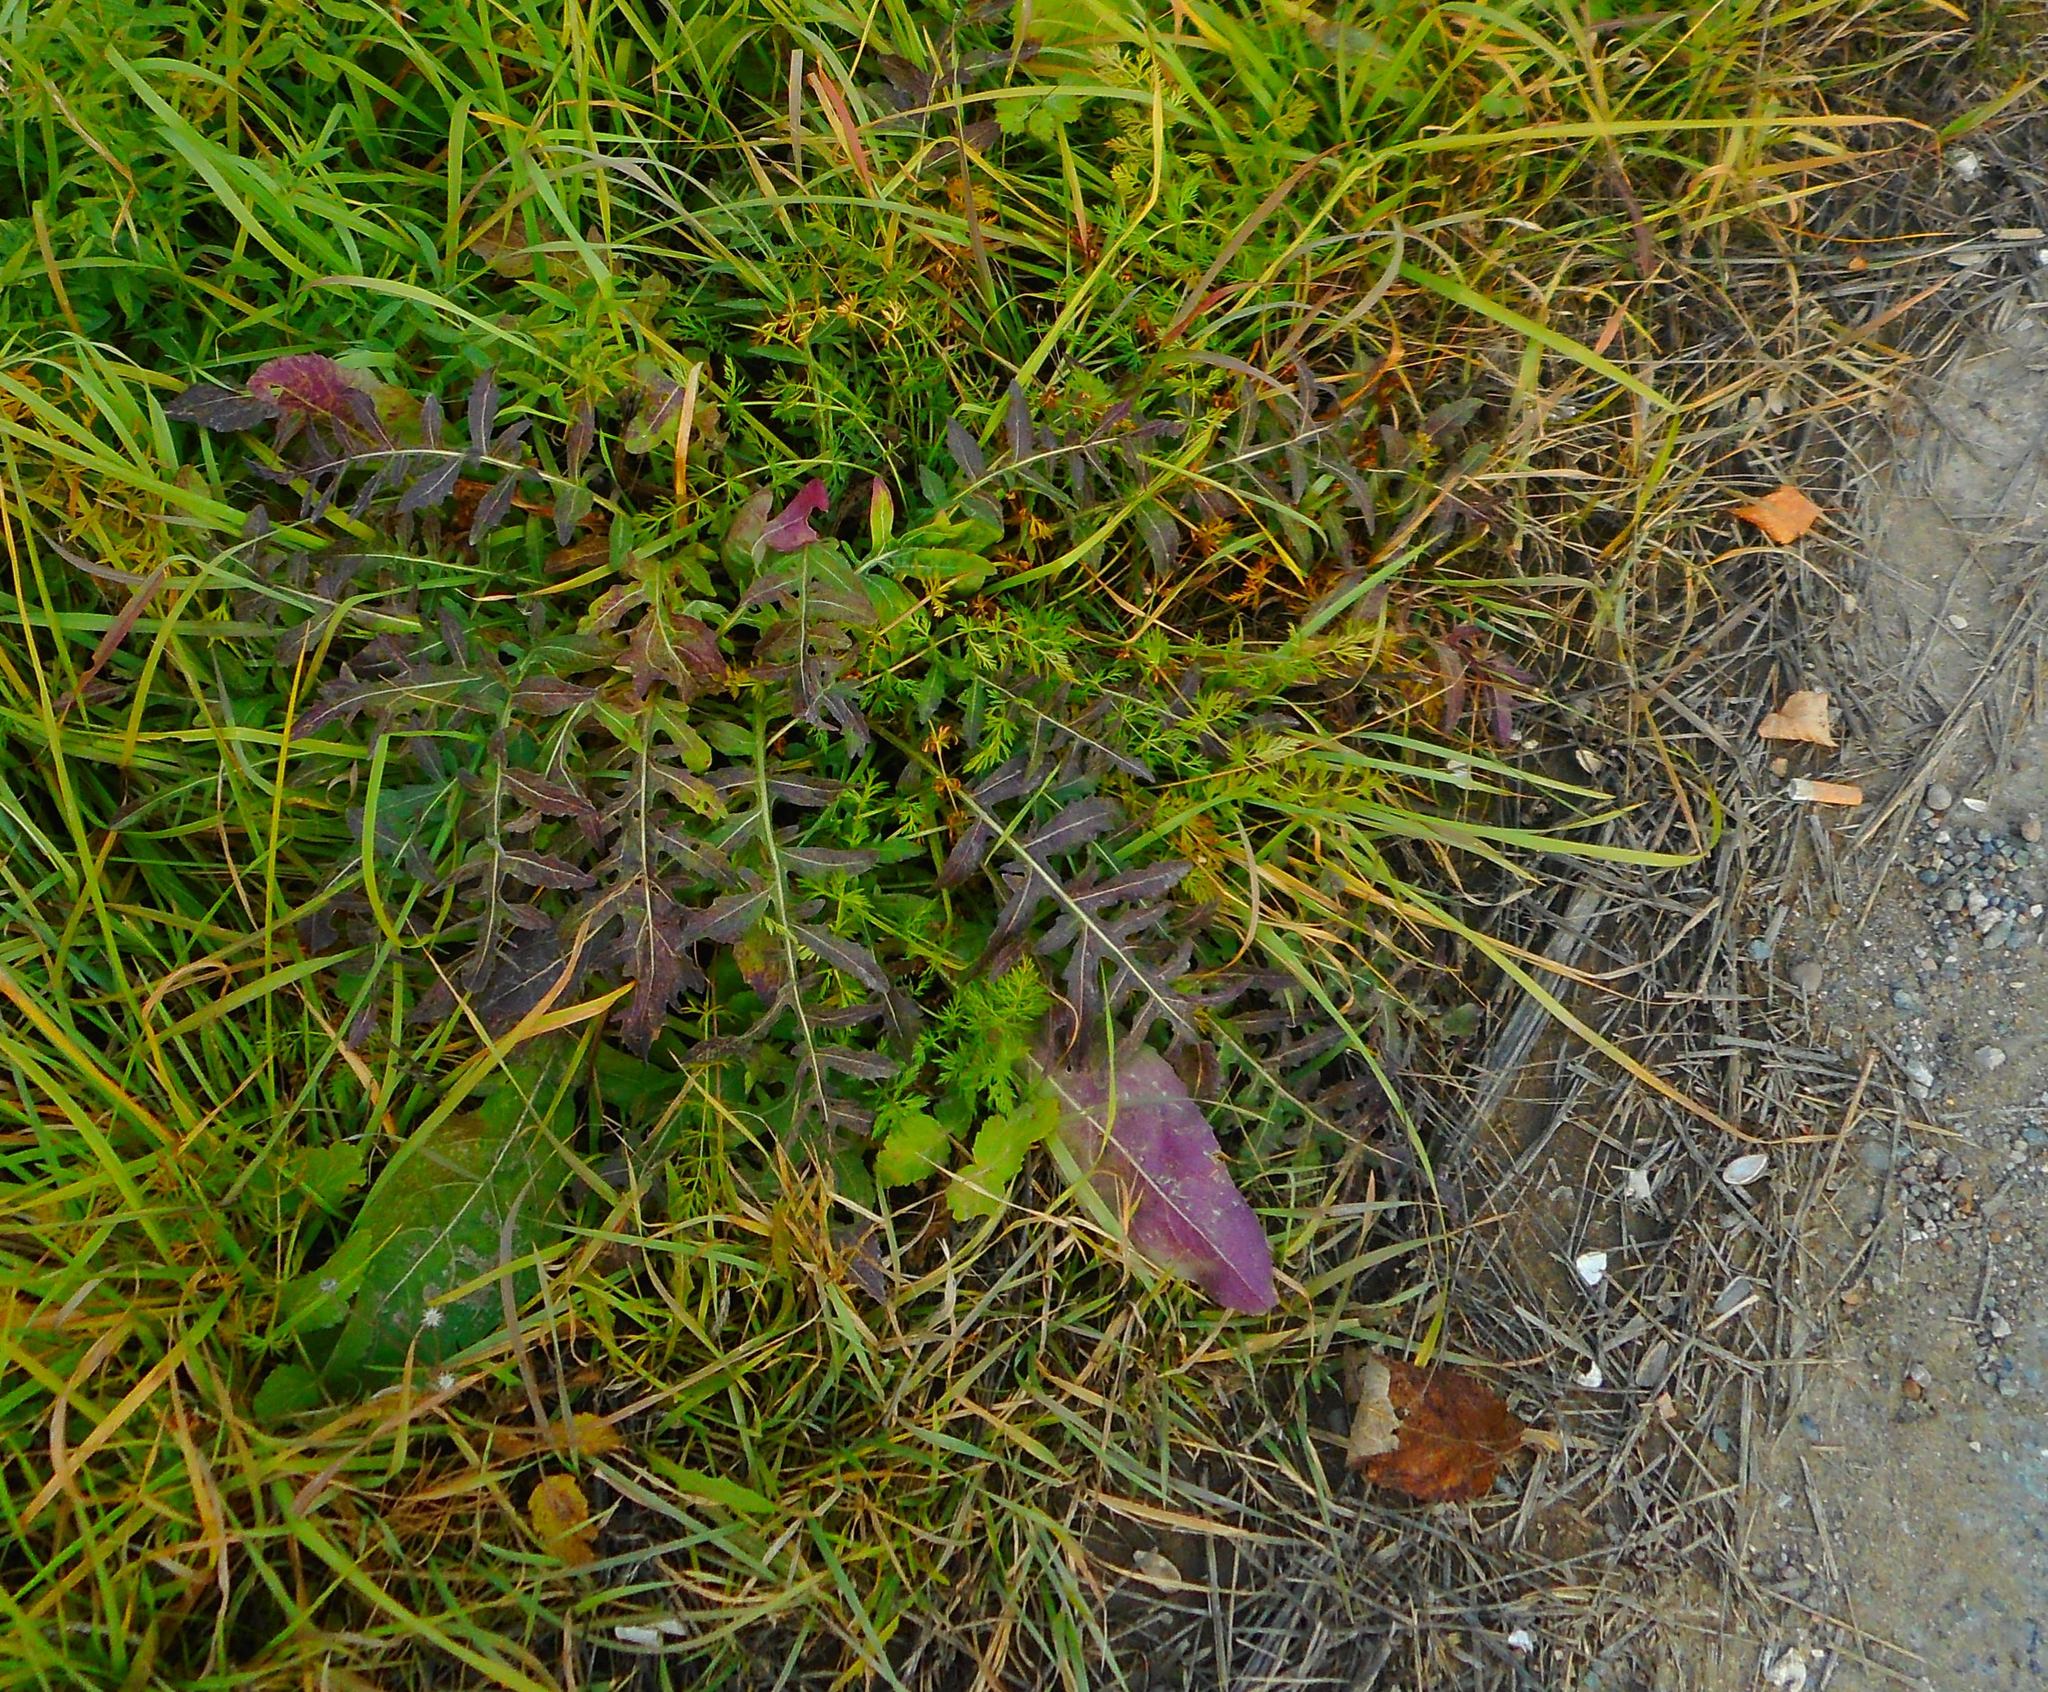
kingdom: Plantae
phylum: Tracheophyta
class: Magnoliopsida
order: Asterales
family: Asteraceae
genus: Centaurea
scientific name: Centaurea scabiosa
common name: Greater knapweed
